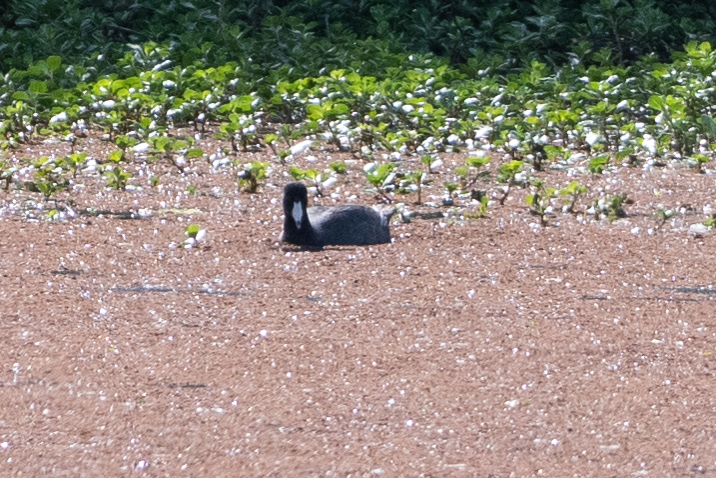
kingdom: Animalia
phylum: Chordata
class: Aves
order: Gruiformes
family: Rallidae
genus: Fulica
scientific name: Fulica americana
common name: American coot
